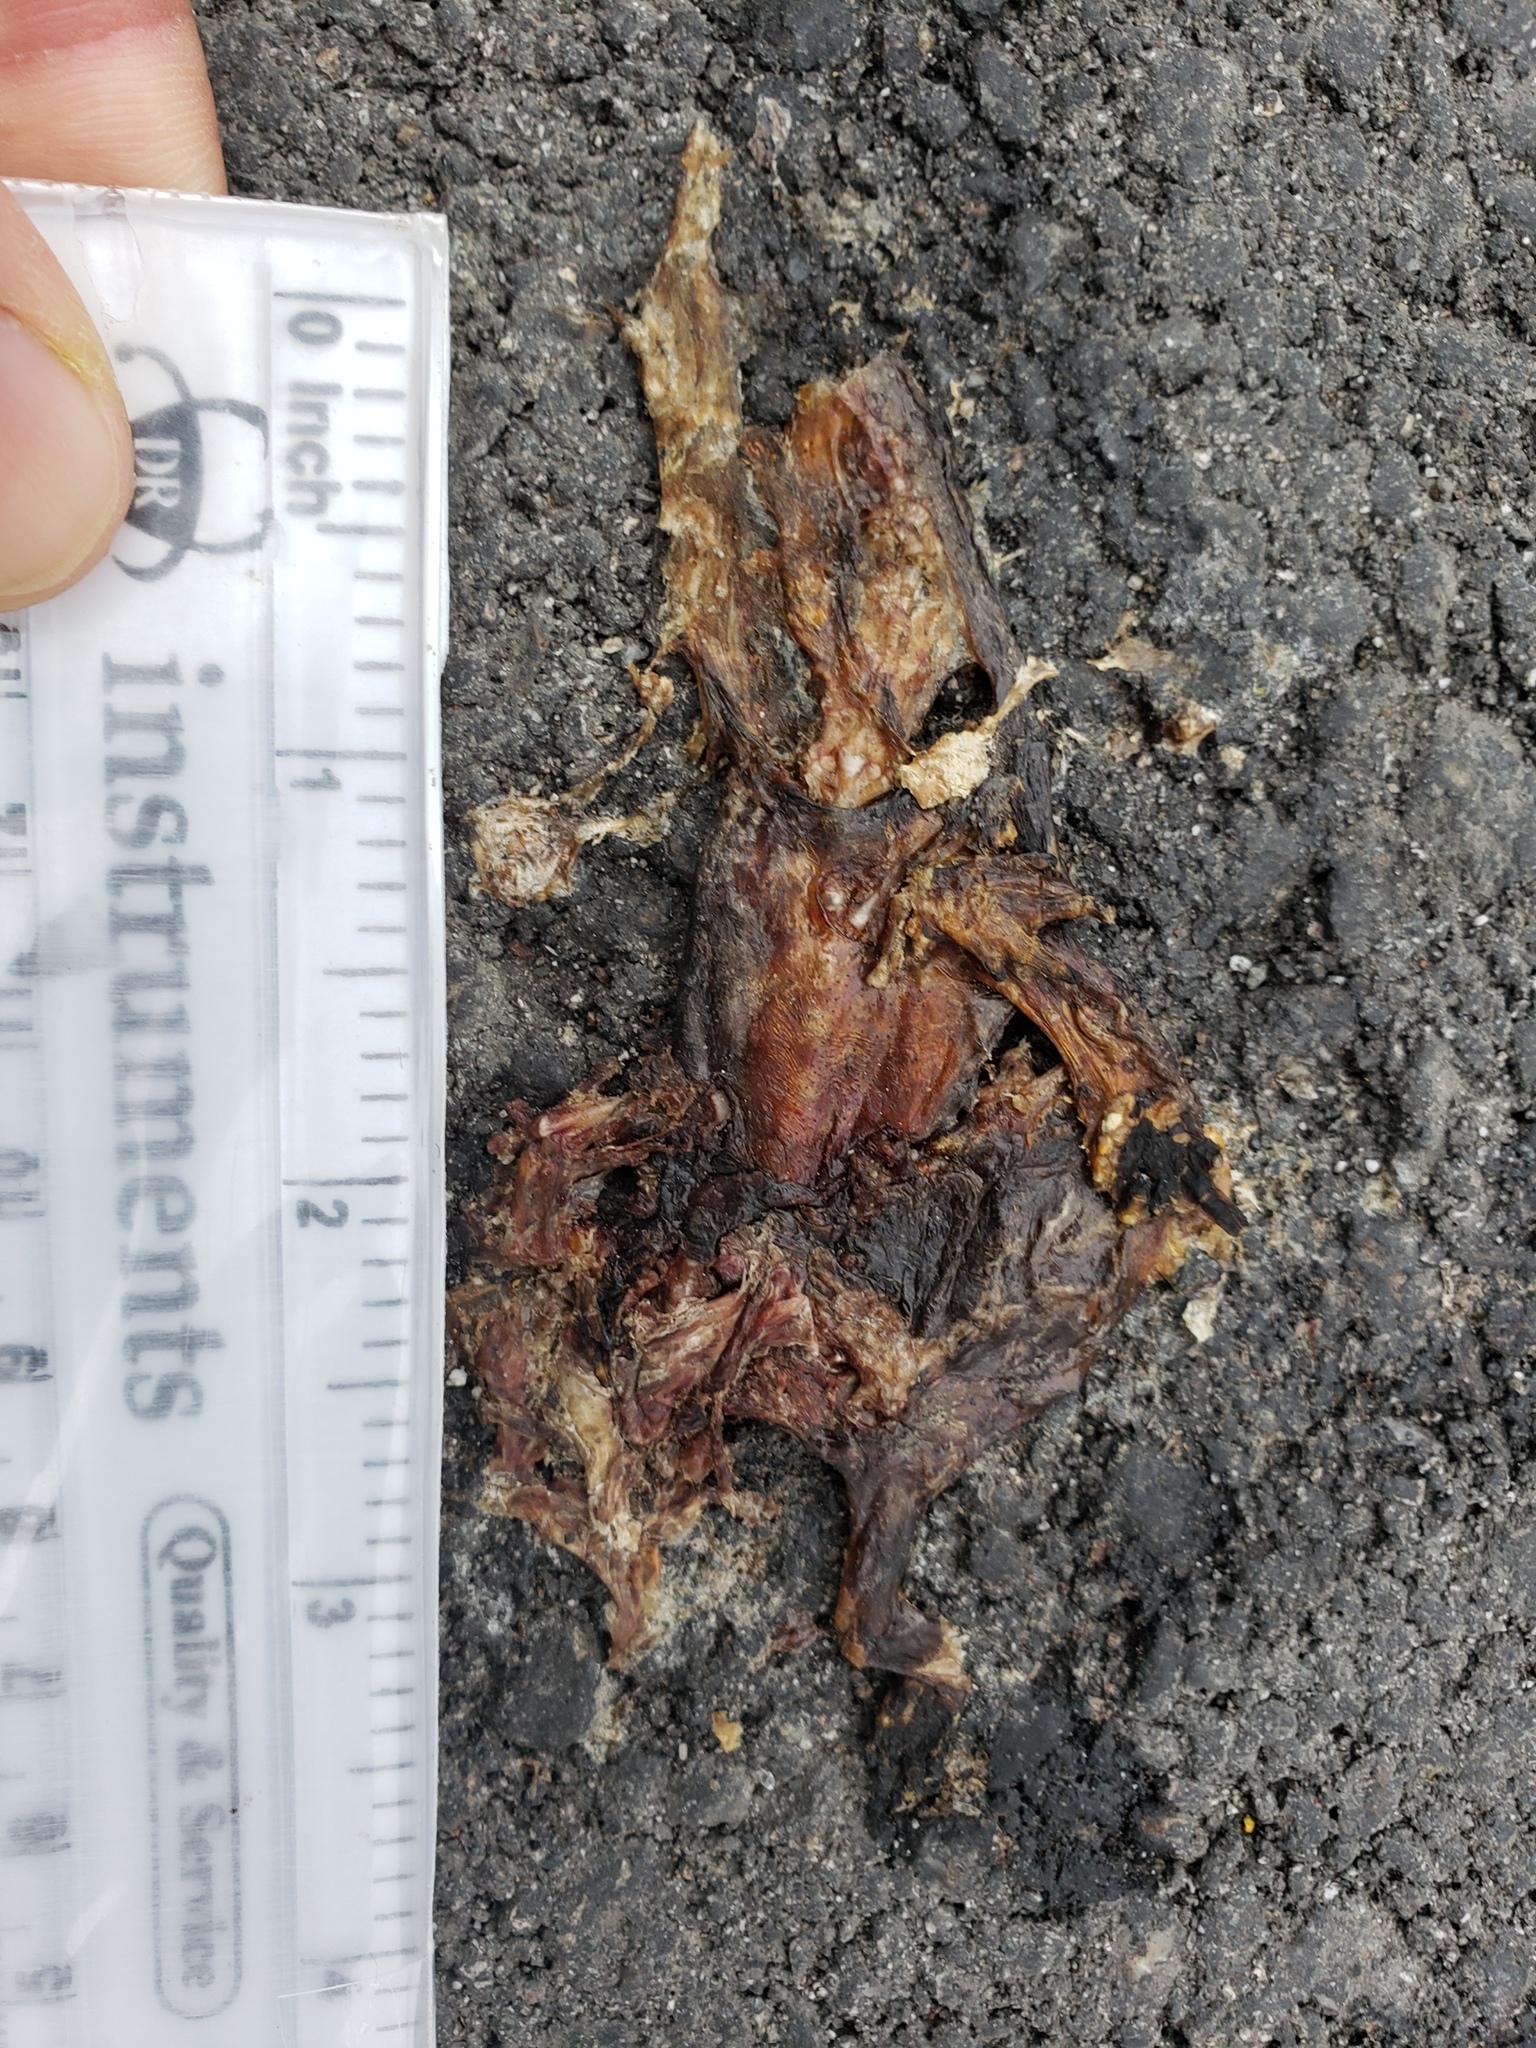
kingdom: Animalia
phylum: Chordata
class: Amphibia
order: Caudata
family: Salamandridae
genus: Taricha
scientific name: Taricha
